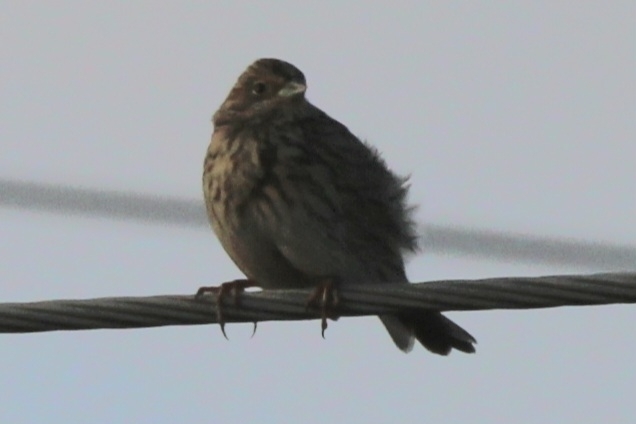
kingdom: Animalia
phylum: Chordata
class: Aves
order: Passeriformes
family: Emberizidae
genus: Emberiza
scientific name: Emberiza calandra
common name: Corn bunting
